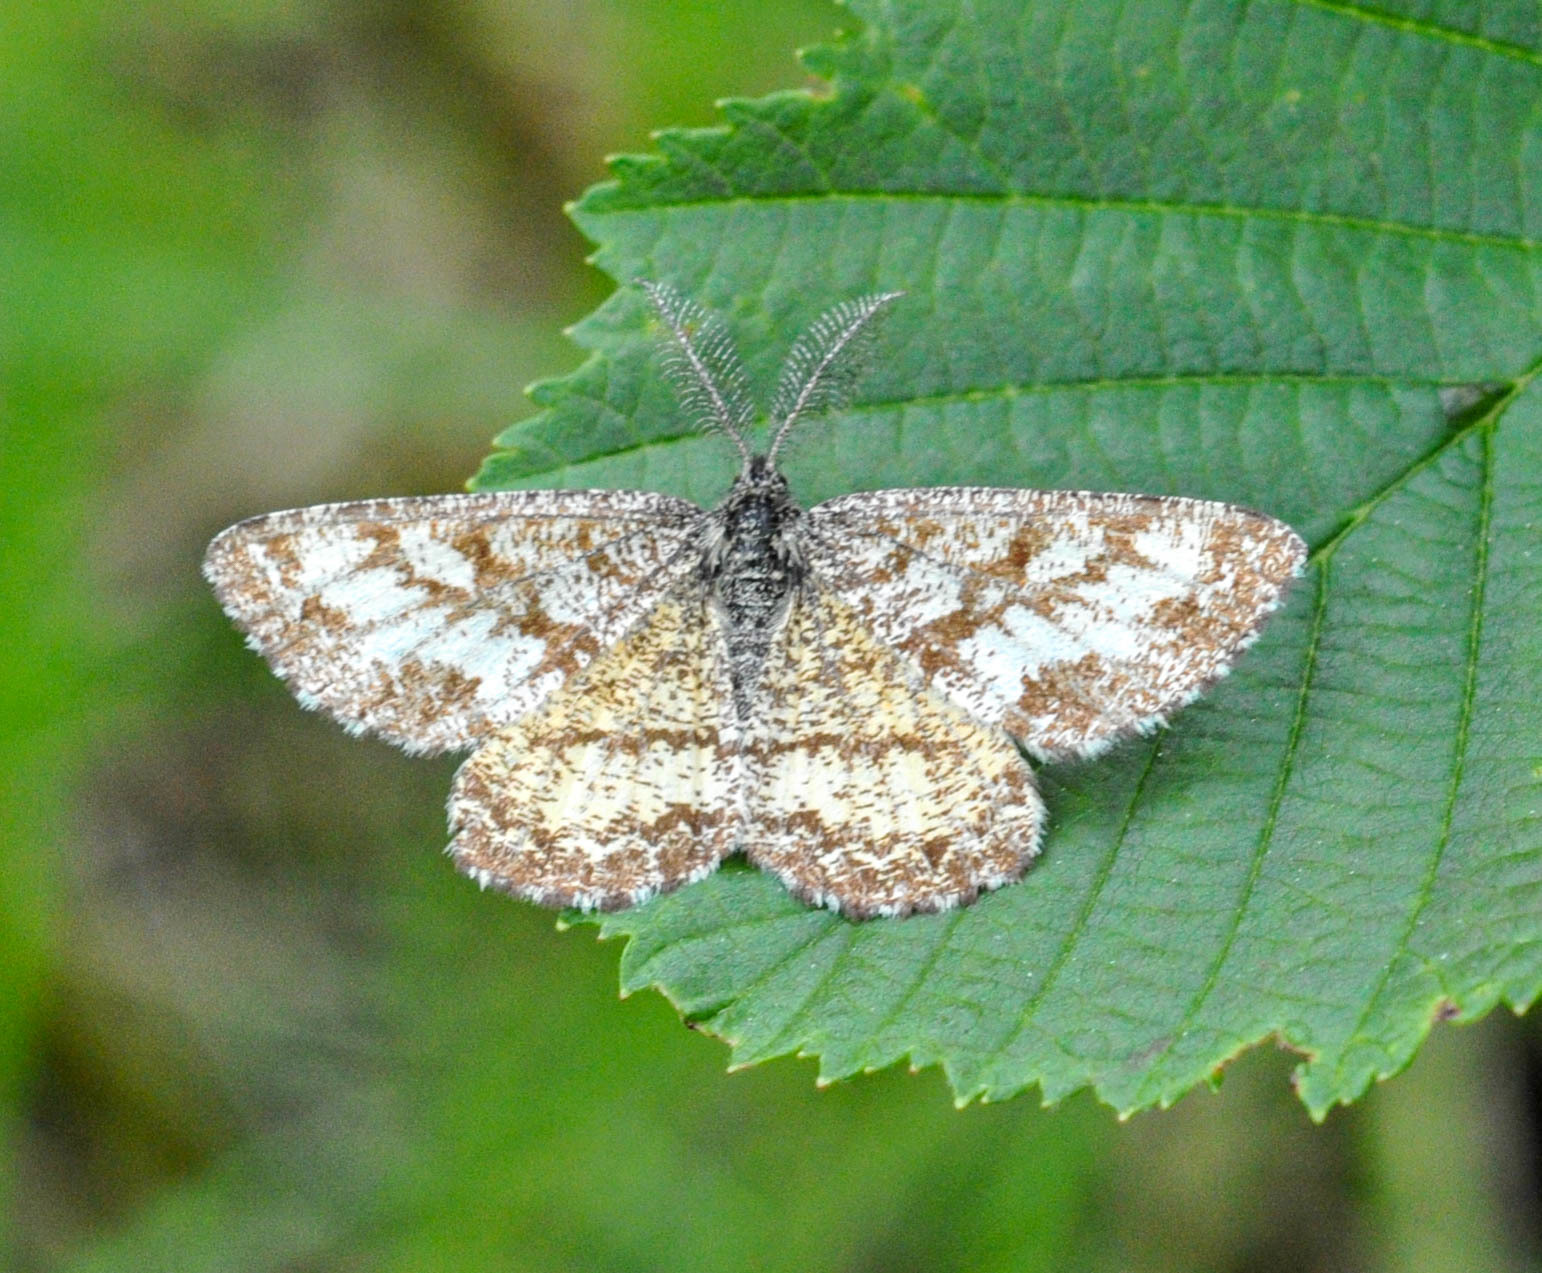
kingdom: Animalia
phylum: Arthropoda
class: Insecta
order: Lepidoptera
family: Geometridae
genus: Ematurga
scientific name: Ematurga atomaria
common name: Common heath
